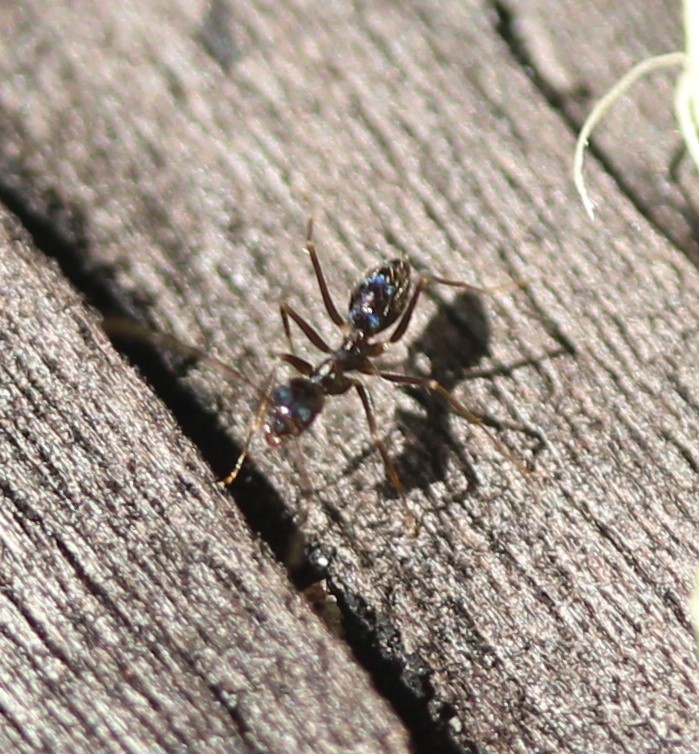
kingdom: Animalia
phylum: Arthropoda
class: Insecta
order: Hymenoptera
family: Formicidae
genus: Paratrechina
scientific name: Paratrechina longicornis
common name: Longhorned crazy ant
